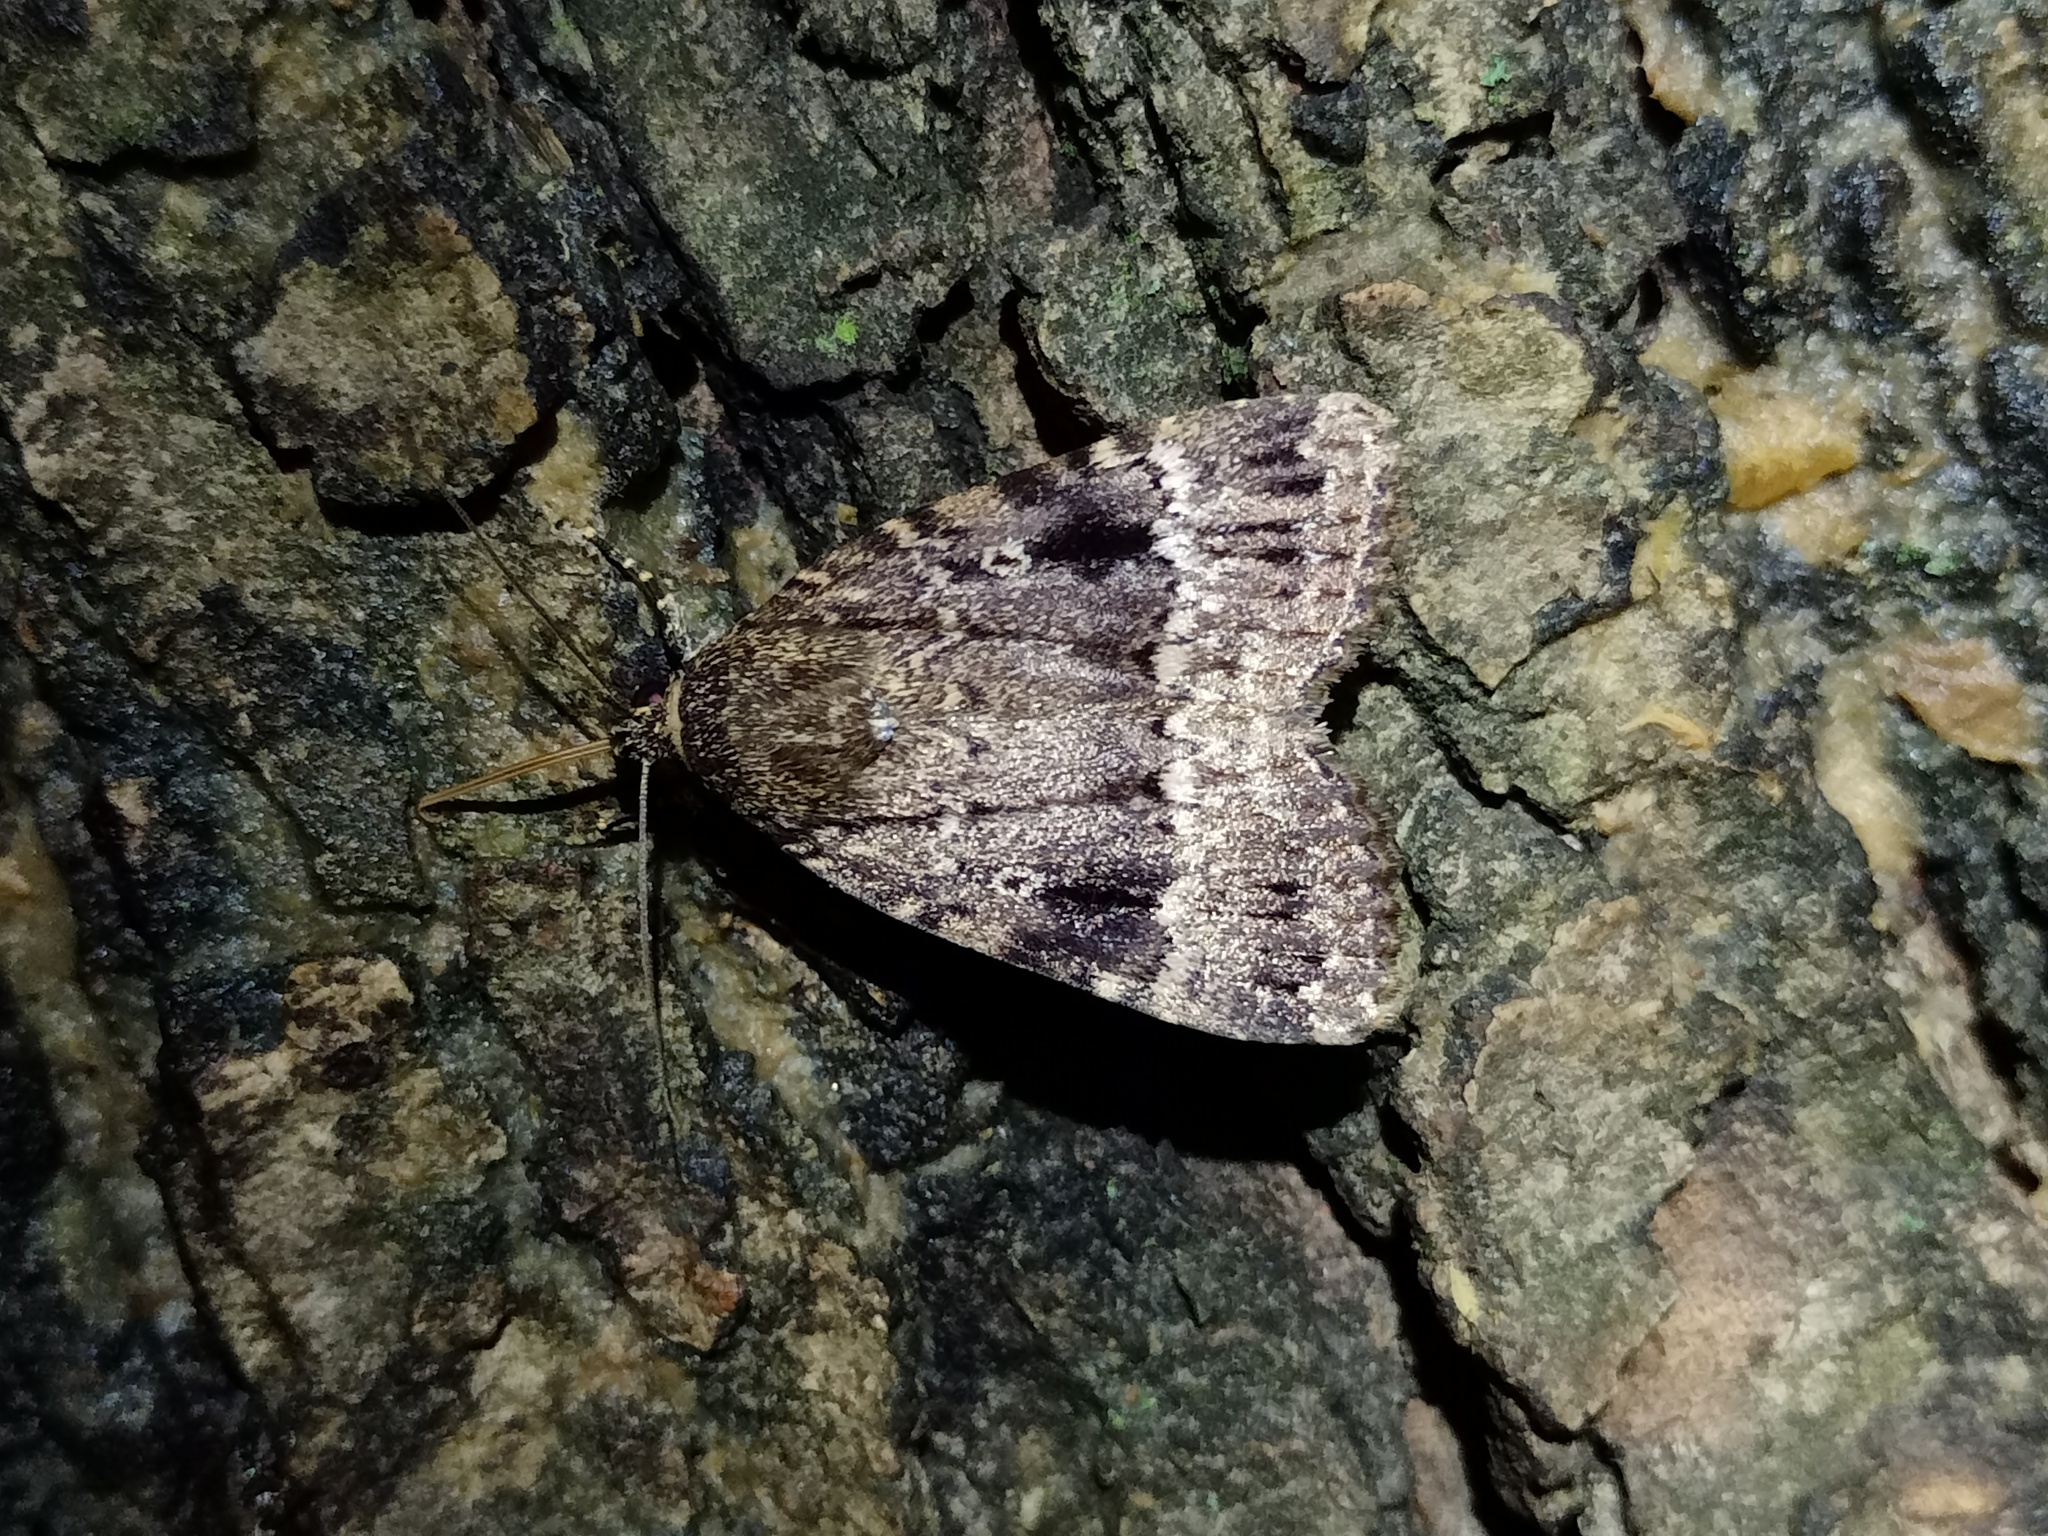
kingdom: Animalia
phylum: Arthropoda
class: Insecta
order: Lepidoptera
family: Noctuidae
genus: Amphipyra
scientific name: Amphipyra pyramidea
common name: Copper underwing
